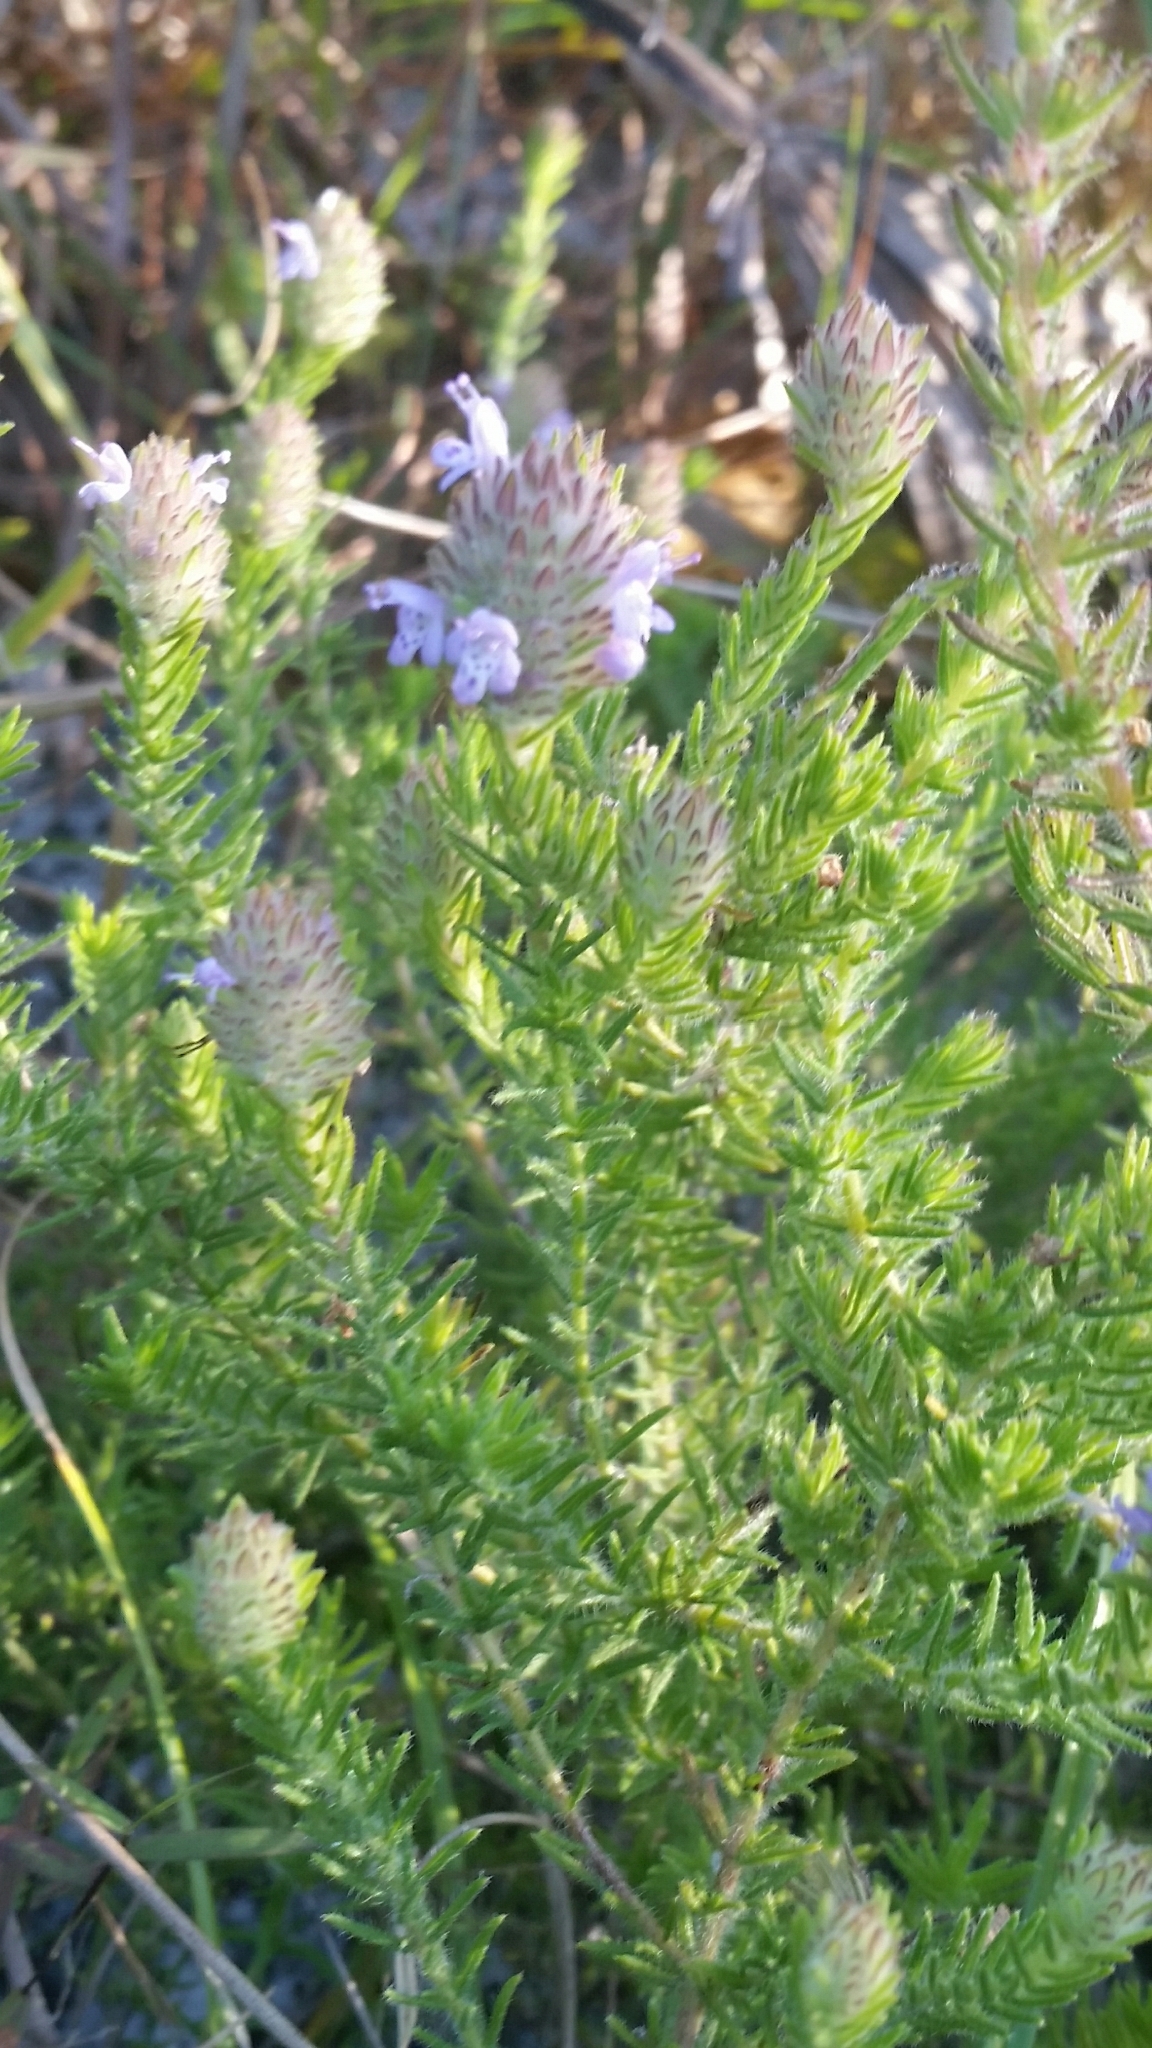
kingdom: Plantae
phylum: Tracheophyta
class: Magnoliopsida
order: Lamiales
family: Lamiaceae
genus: Piloblephis
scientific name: Piloblephis rigida
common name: Wild pennyroyal
